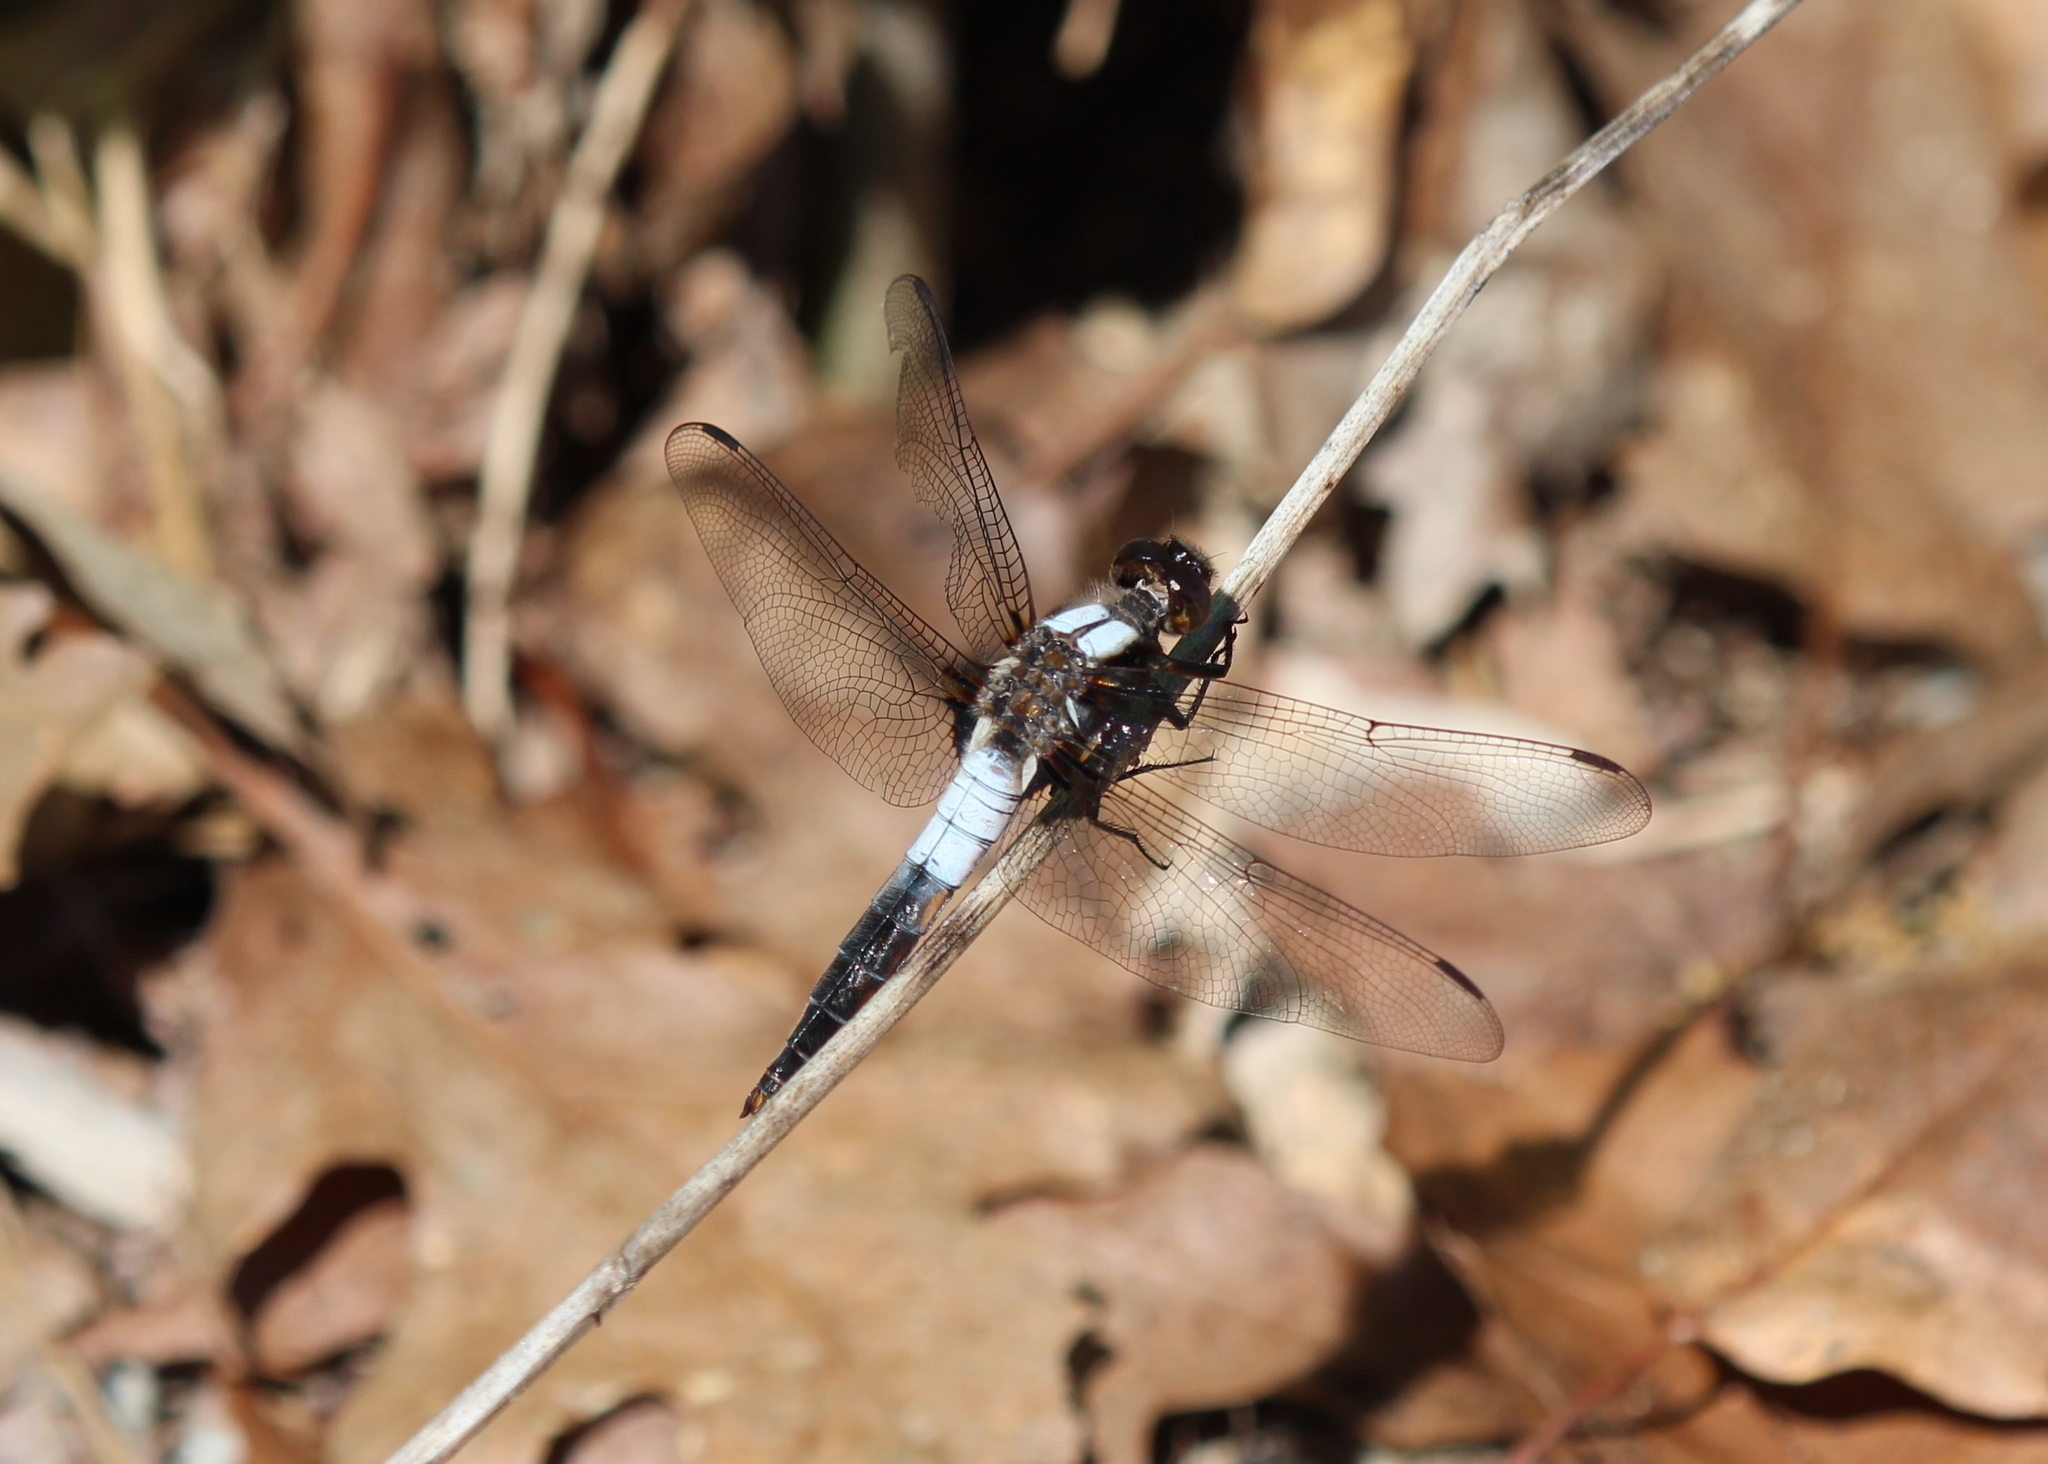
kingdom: Animalia
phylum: Arthropoda
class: Insecta
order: Odonata
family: Libellulidae
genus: Ladona
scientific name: Ladona julia
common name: Chalk-fronted corporal
